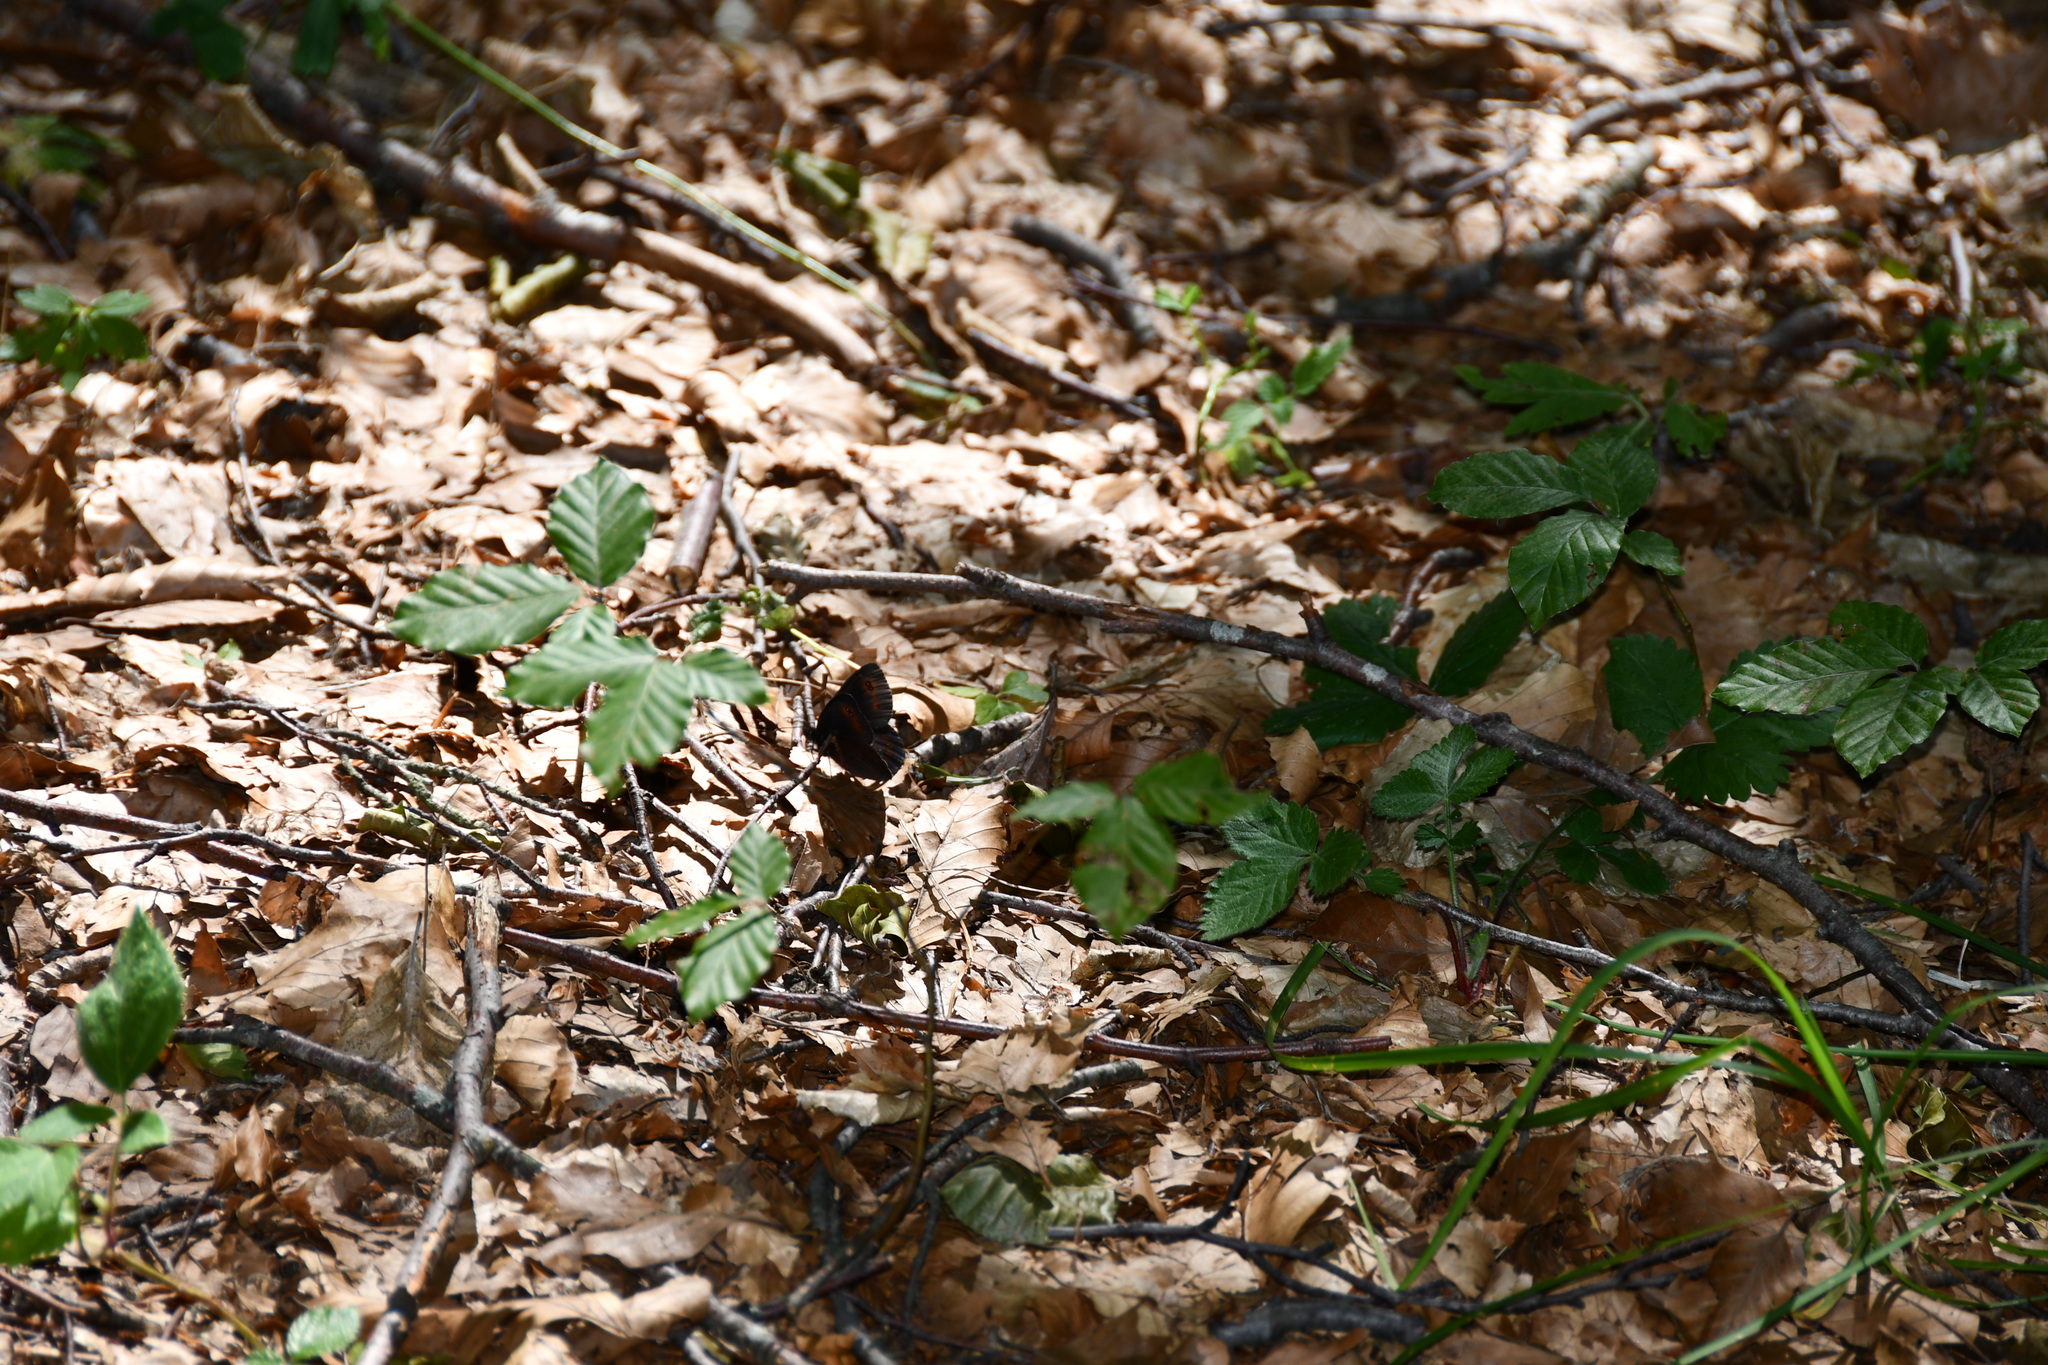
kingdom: Animalia
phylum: Arthropoda
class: Insecta
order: Lepidoptera
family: Nymphalidae
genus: Erebia
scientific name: Erebia aethiops
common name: Scotch argus
